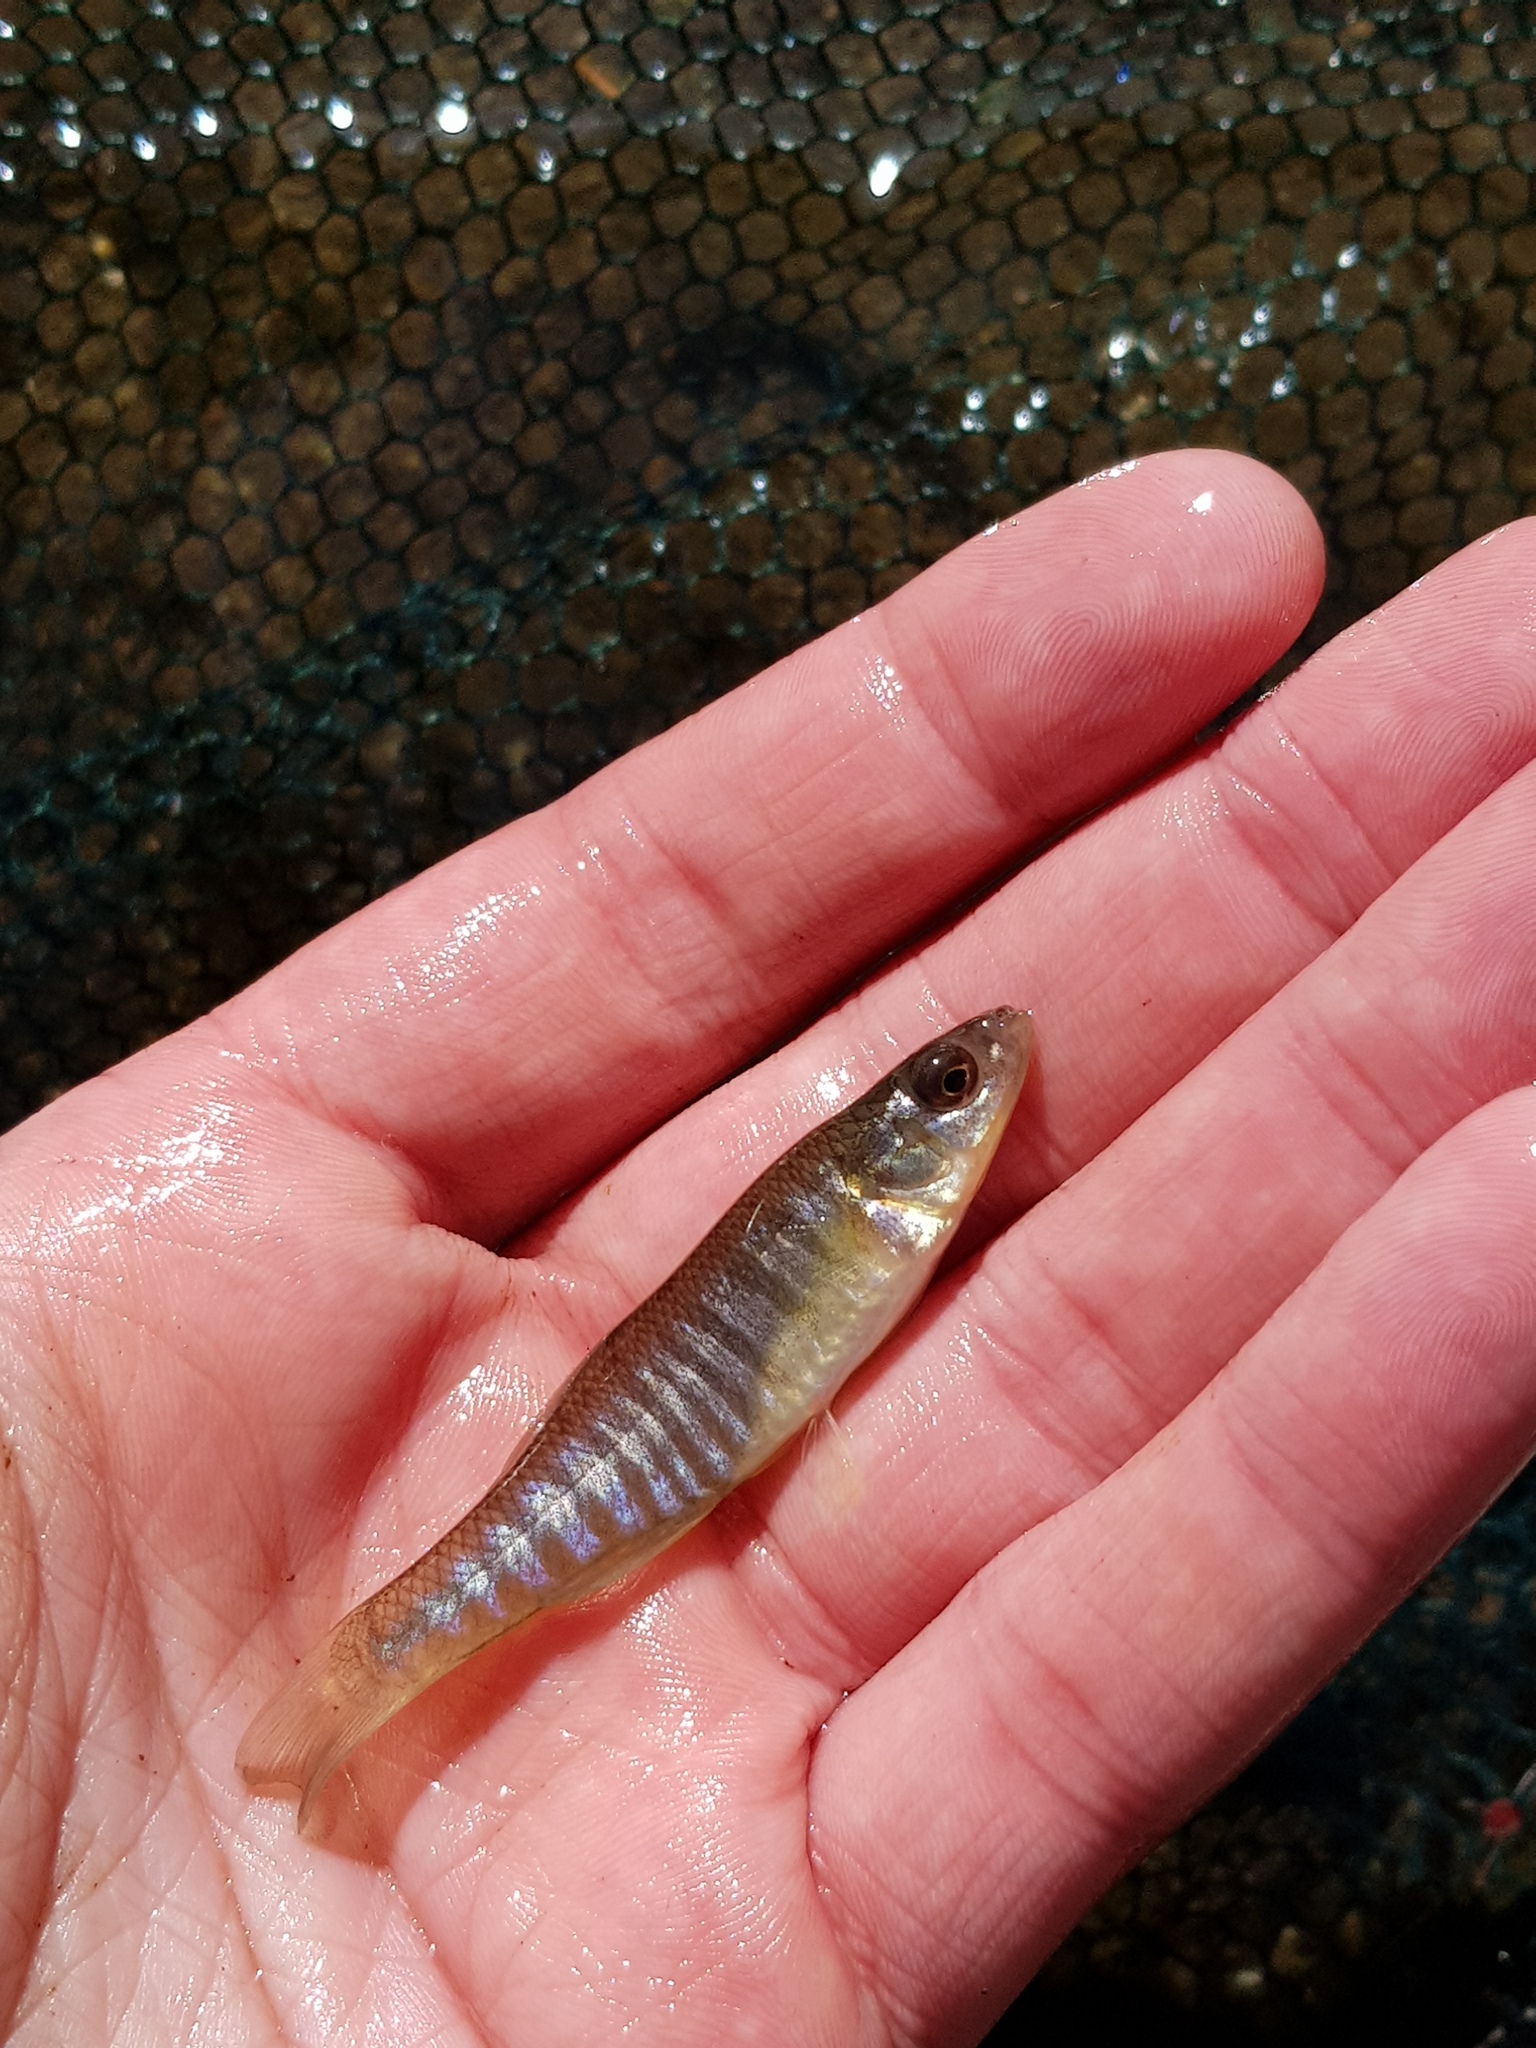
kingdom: Animalia
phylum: Chordata
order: Cyprinodontiformes
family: Fundulidae
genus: Fundulus
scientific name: Fundulus diaphanus
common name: Banded killifish
